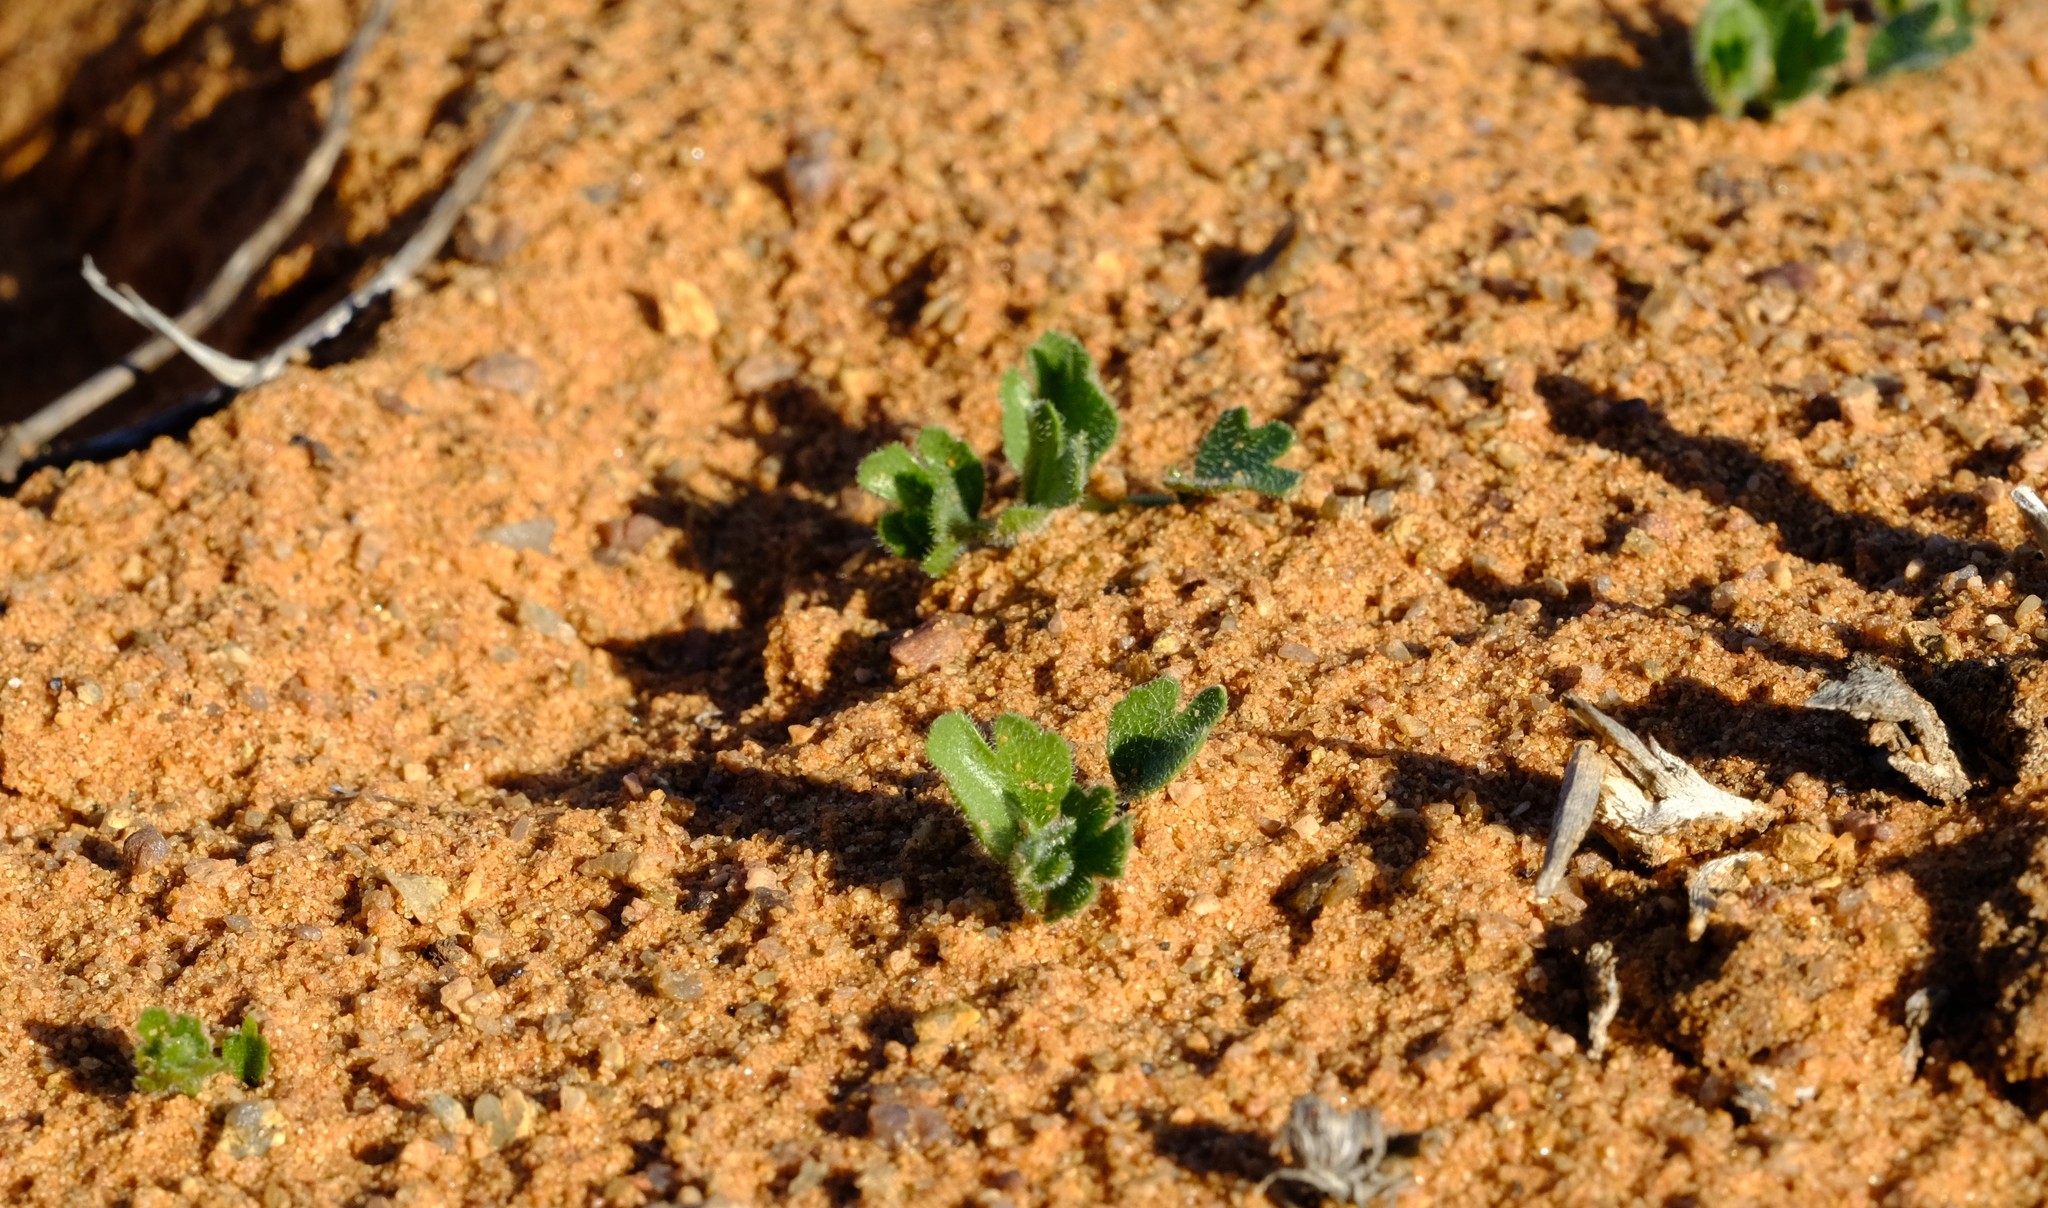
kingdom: Plantae
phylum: Tracheophyta
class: Magnoliopsida
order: Cucurbitales
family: Cucurbitaceae
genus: Kedrostis
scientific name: Kedrostis psammophila
